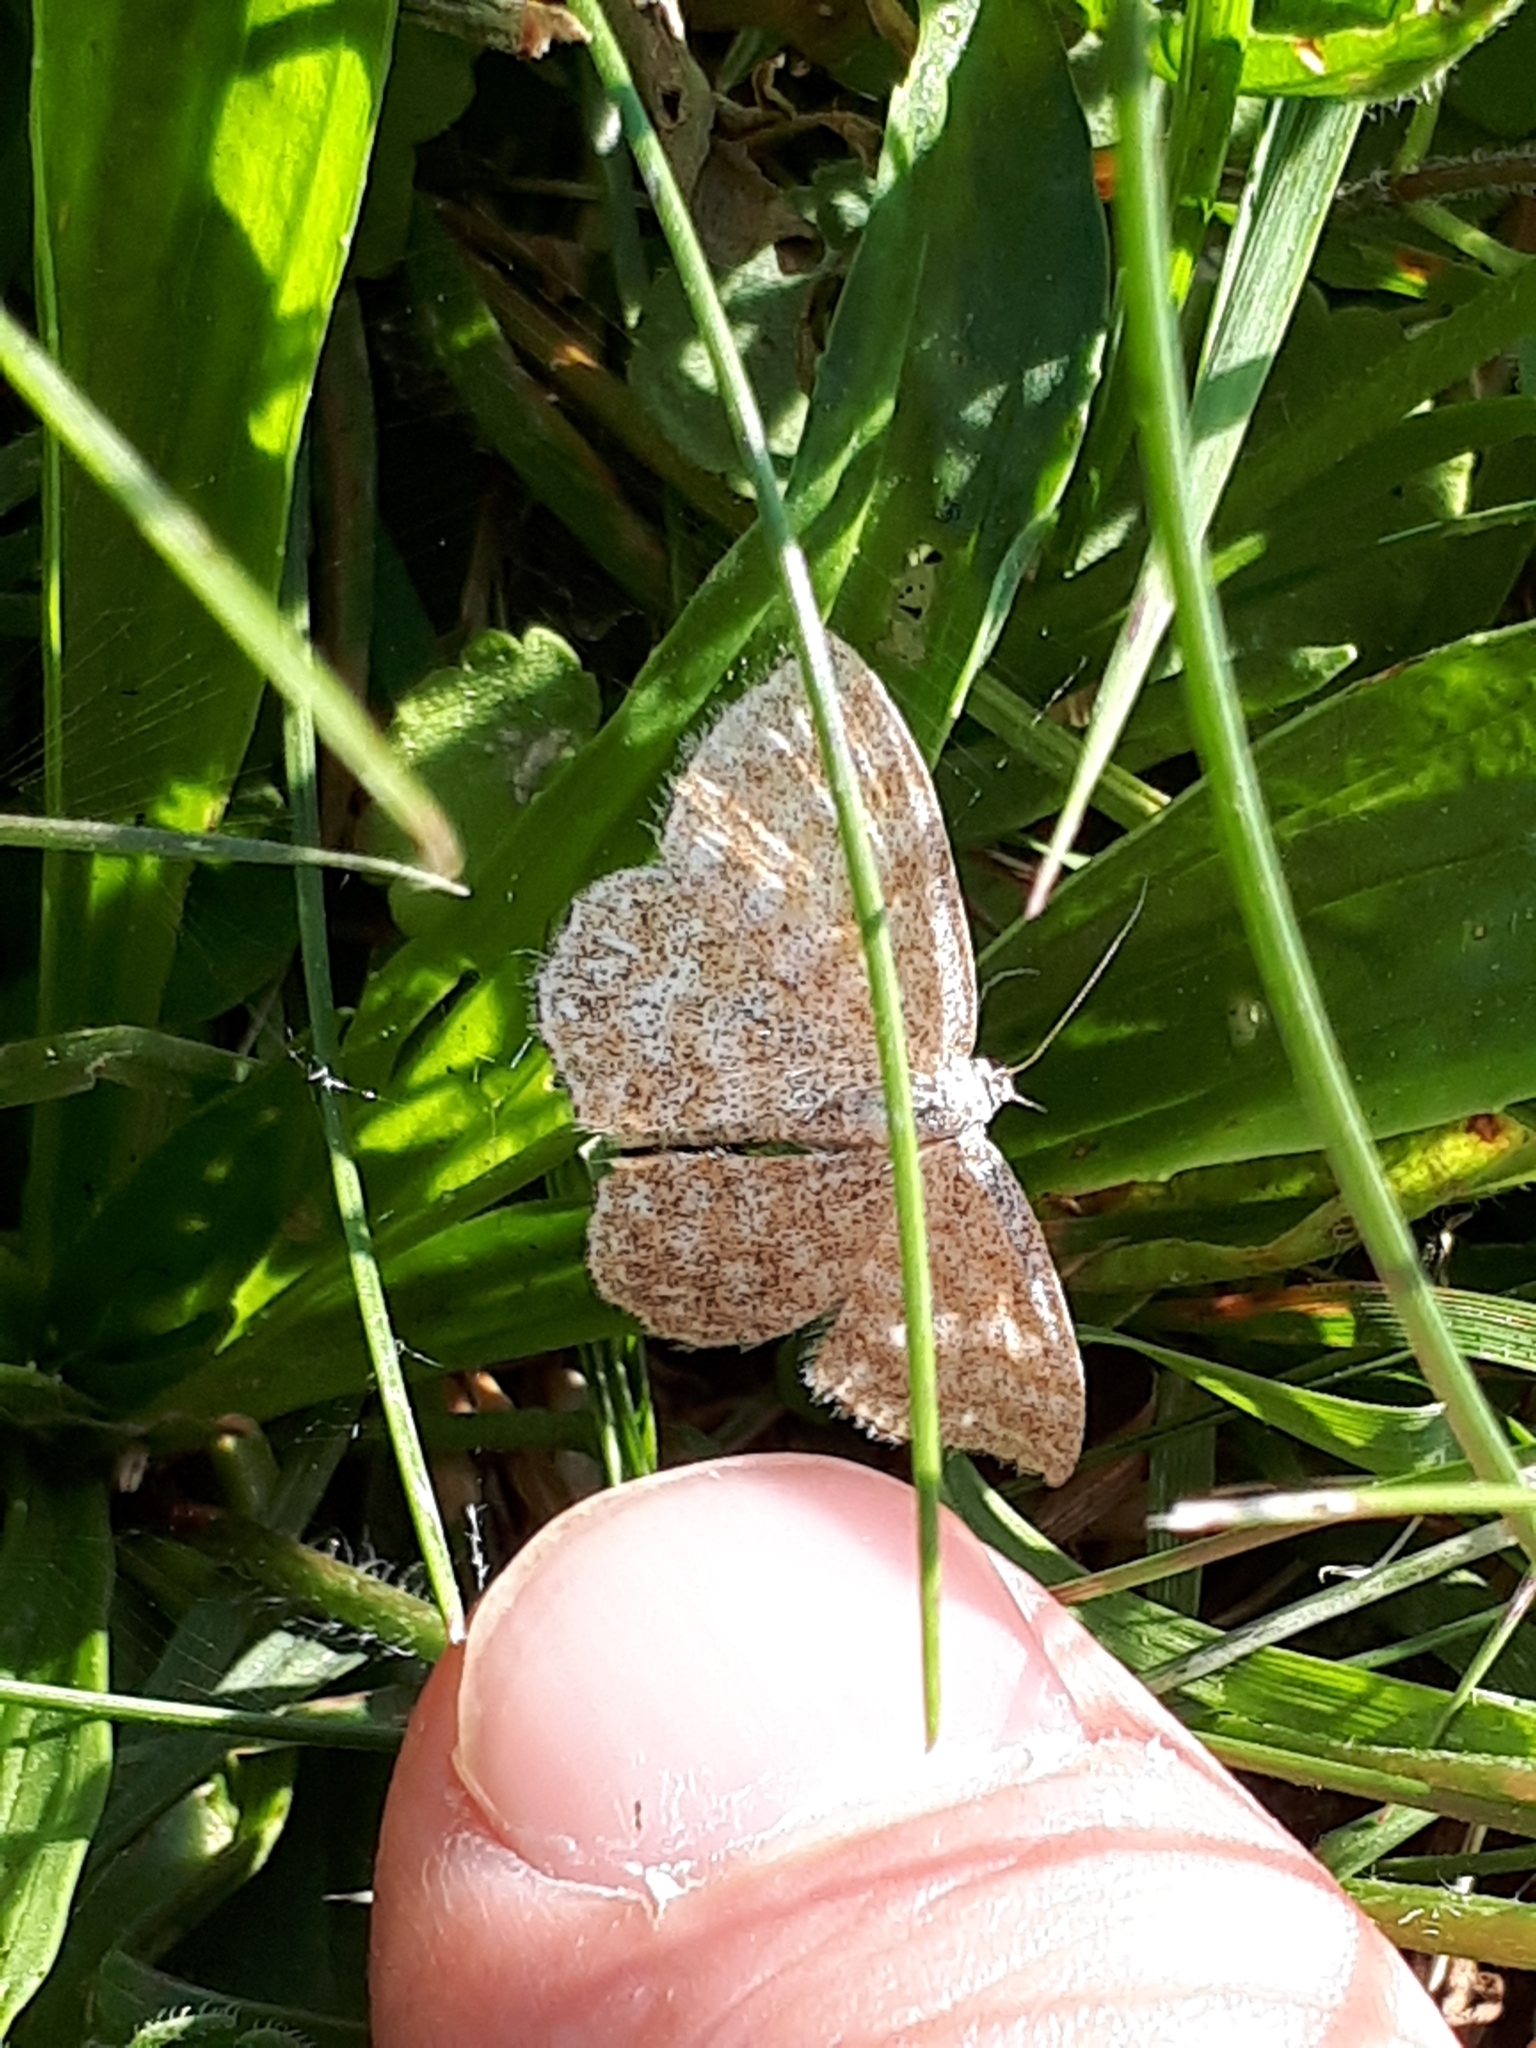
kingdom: Animalia
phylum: Arthropoda
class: Insecta
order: Lepidoptera
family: Geometridae
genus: Scopula
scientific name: Scopula immorata
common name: Lewes wave
